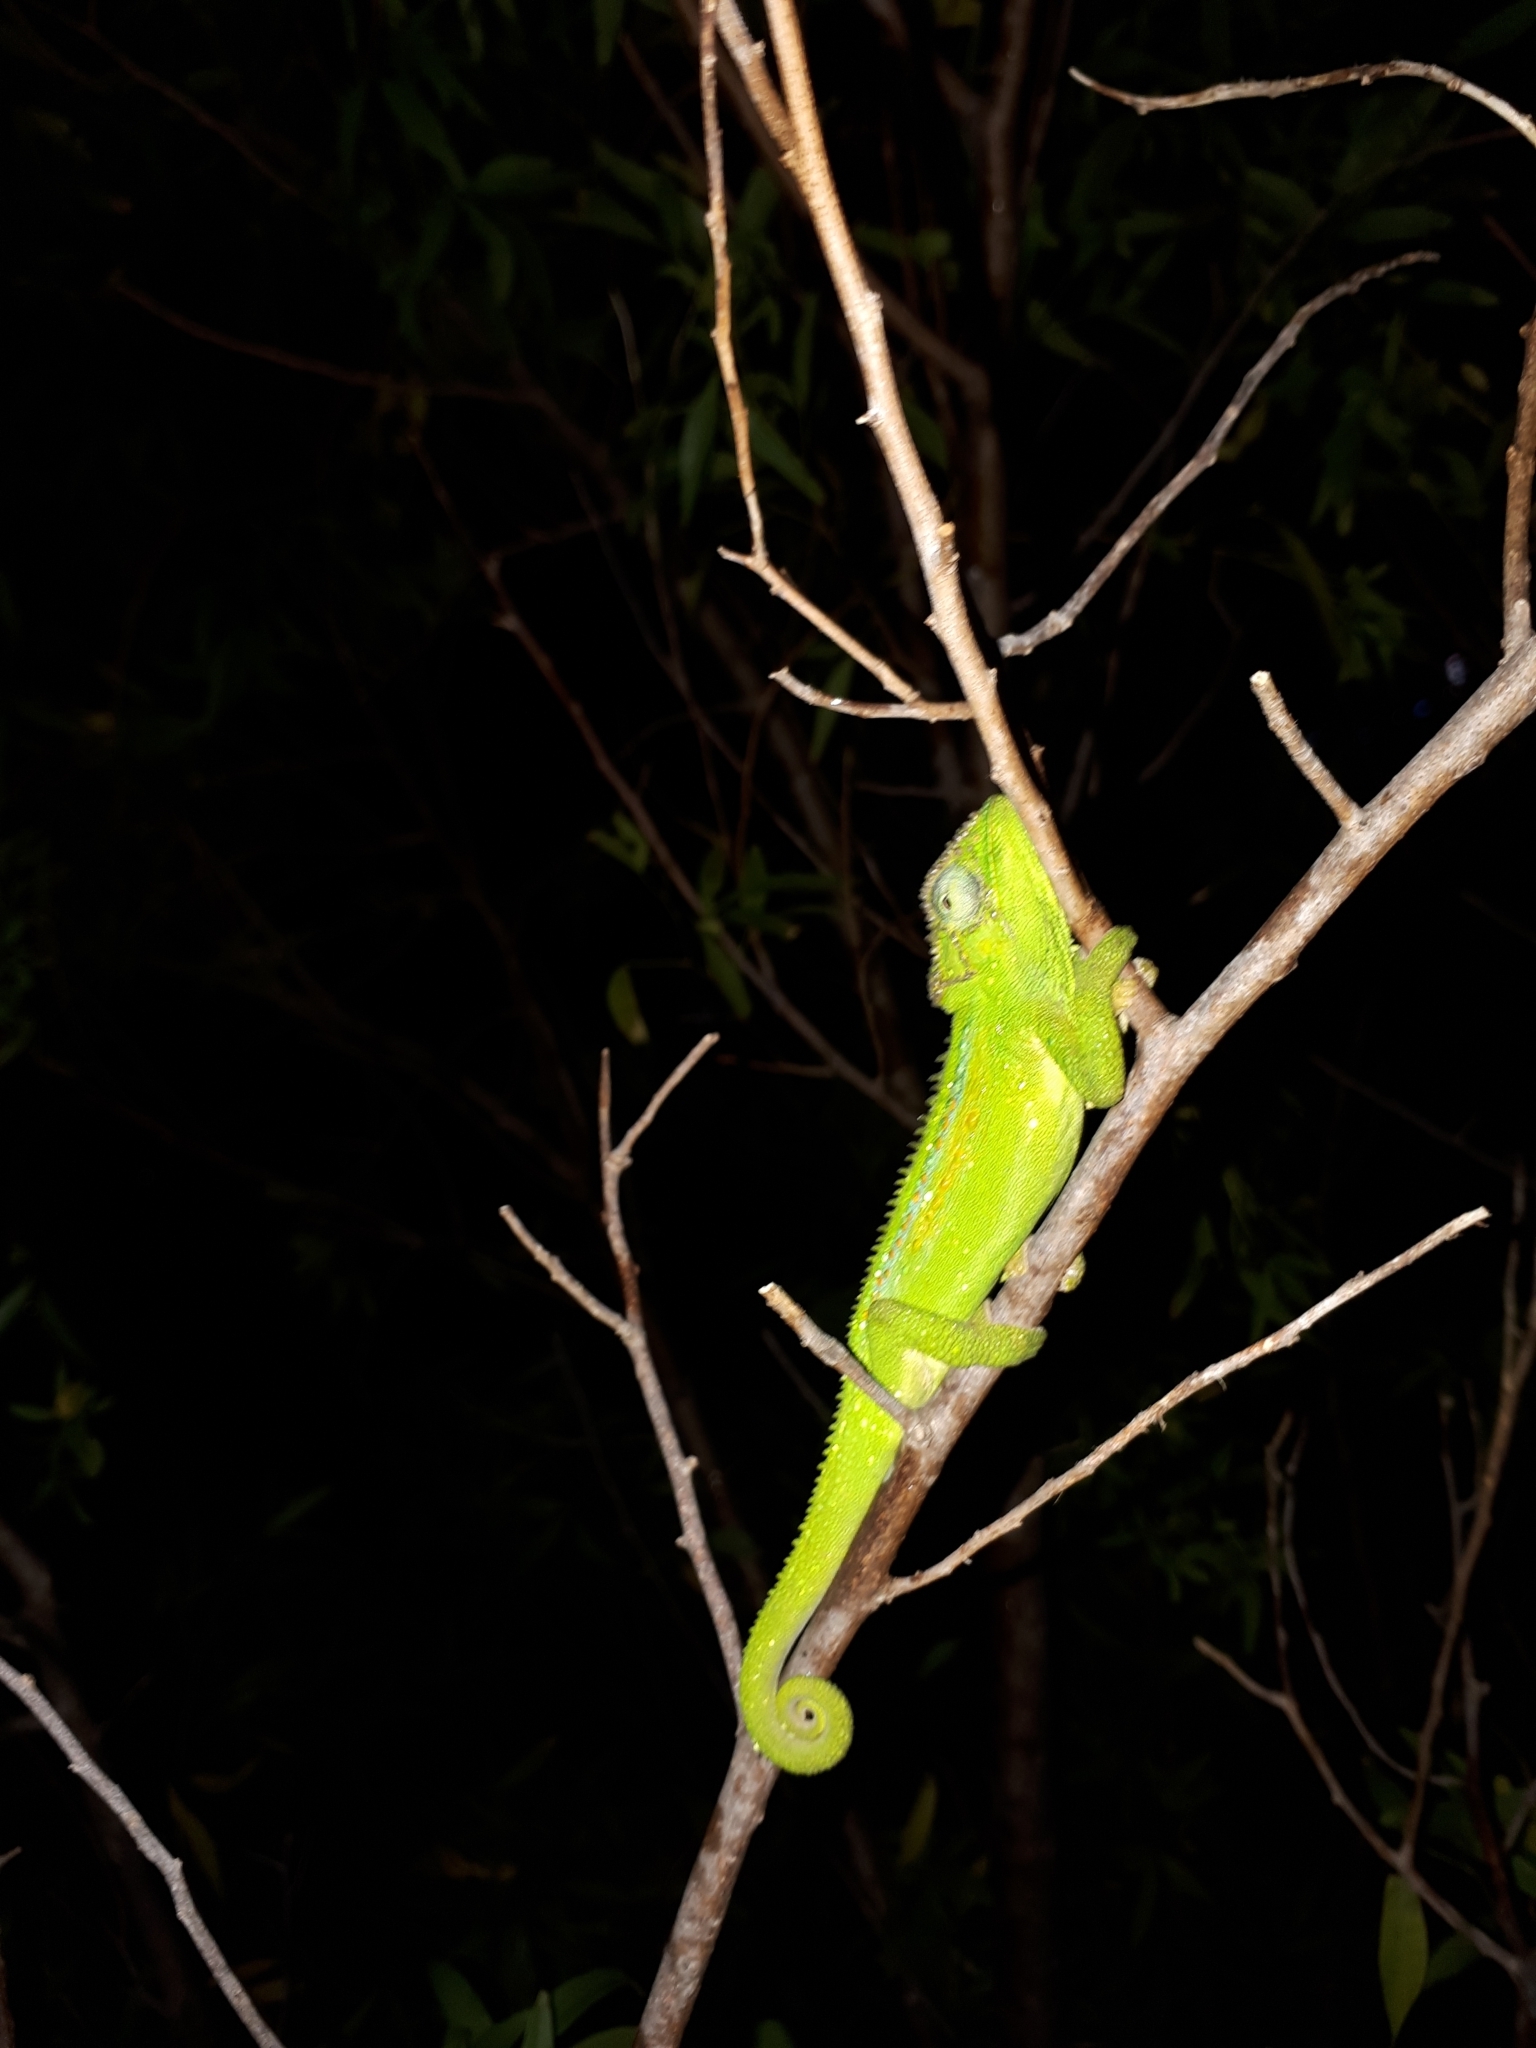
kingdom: Animalia
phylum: Chordata
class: Squamata
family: Chamaeleonidae
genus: Bradypodion
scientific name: Bradypodion pumilum
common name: Cape dwarf chameleon
